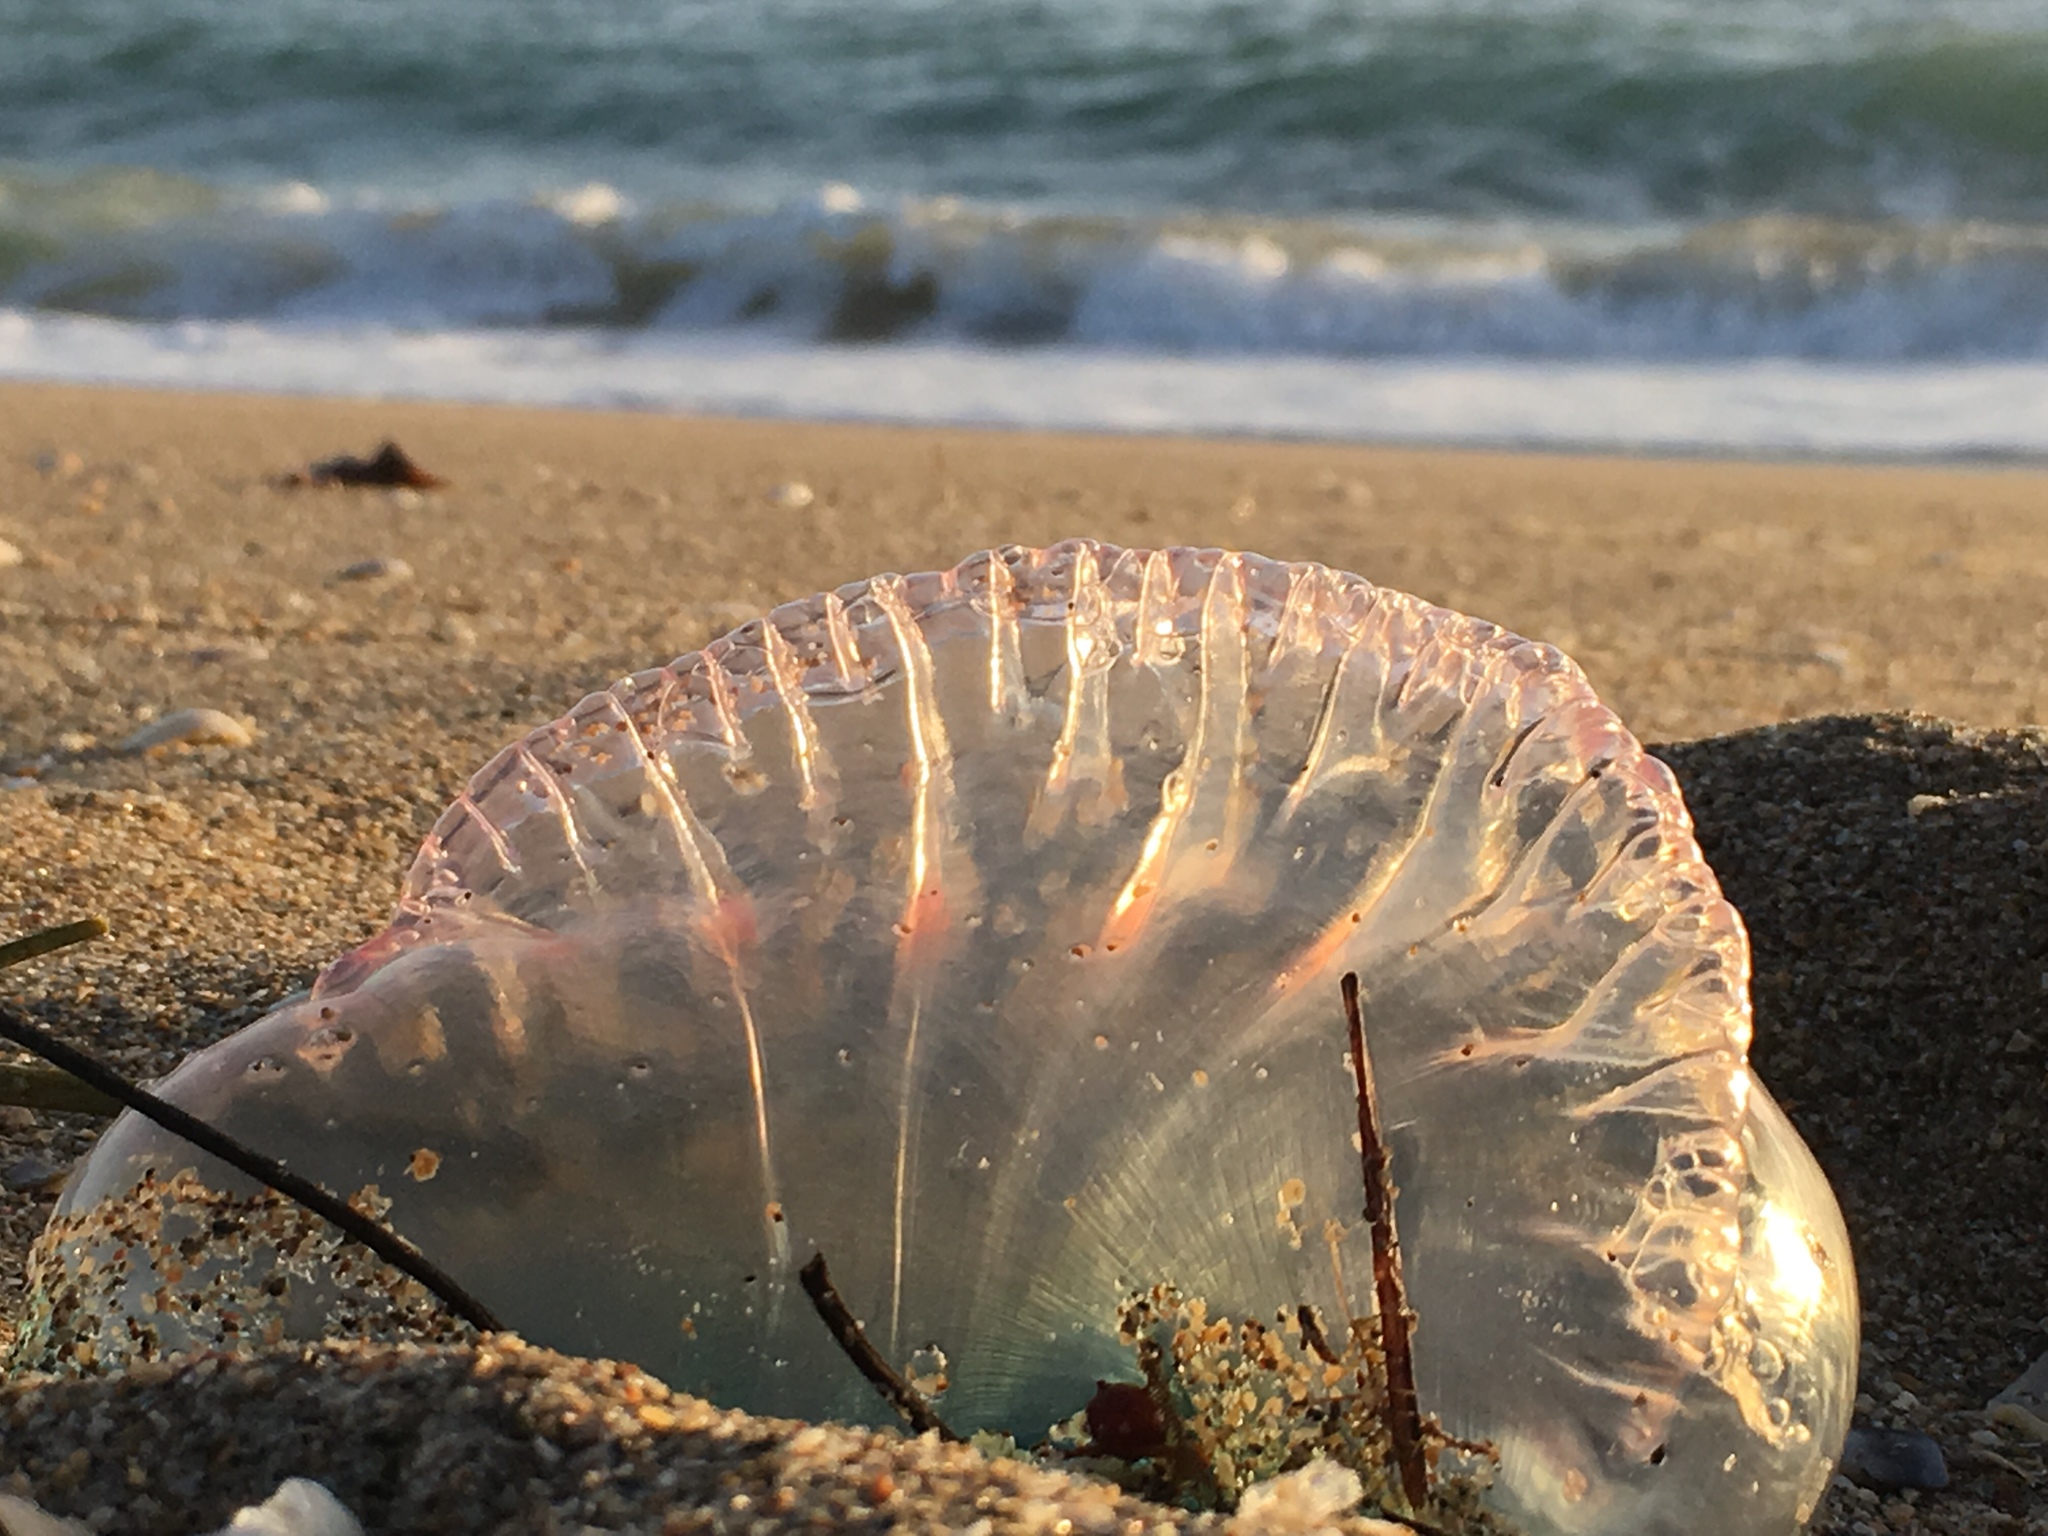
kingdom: Animalia
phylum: Cnidaria
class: Hydrozoa
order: Siphonophorae
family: Physaliidae
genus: Physalia
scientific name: Physalia physalis
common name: Portuguese man-of-war
